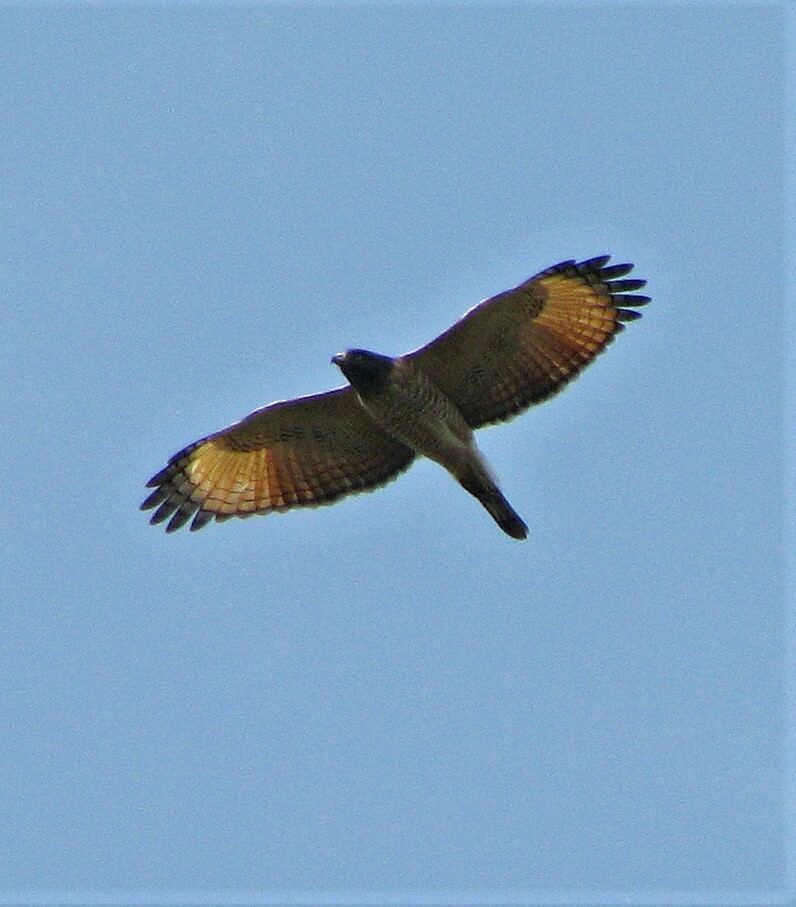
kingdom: Animalia
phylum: Chordata
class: Aves
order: Accipitriformes
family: Accipitridae
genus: Rupornis
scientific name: Rupornis magnirostris
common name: Roadside hawk
